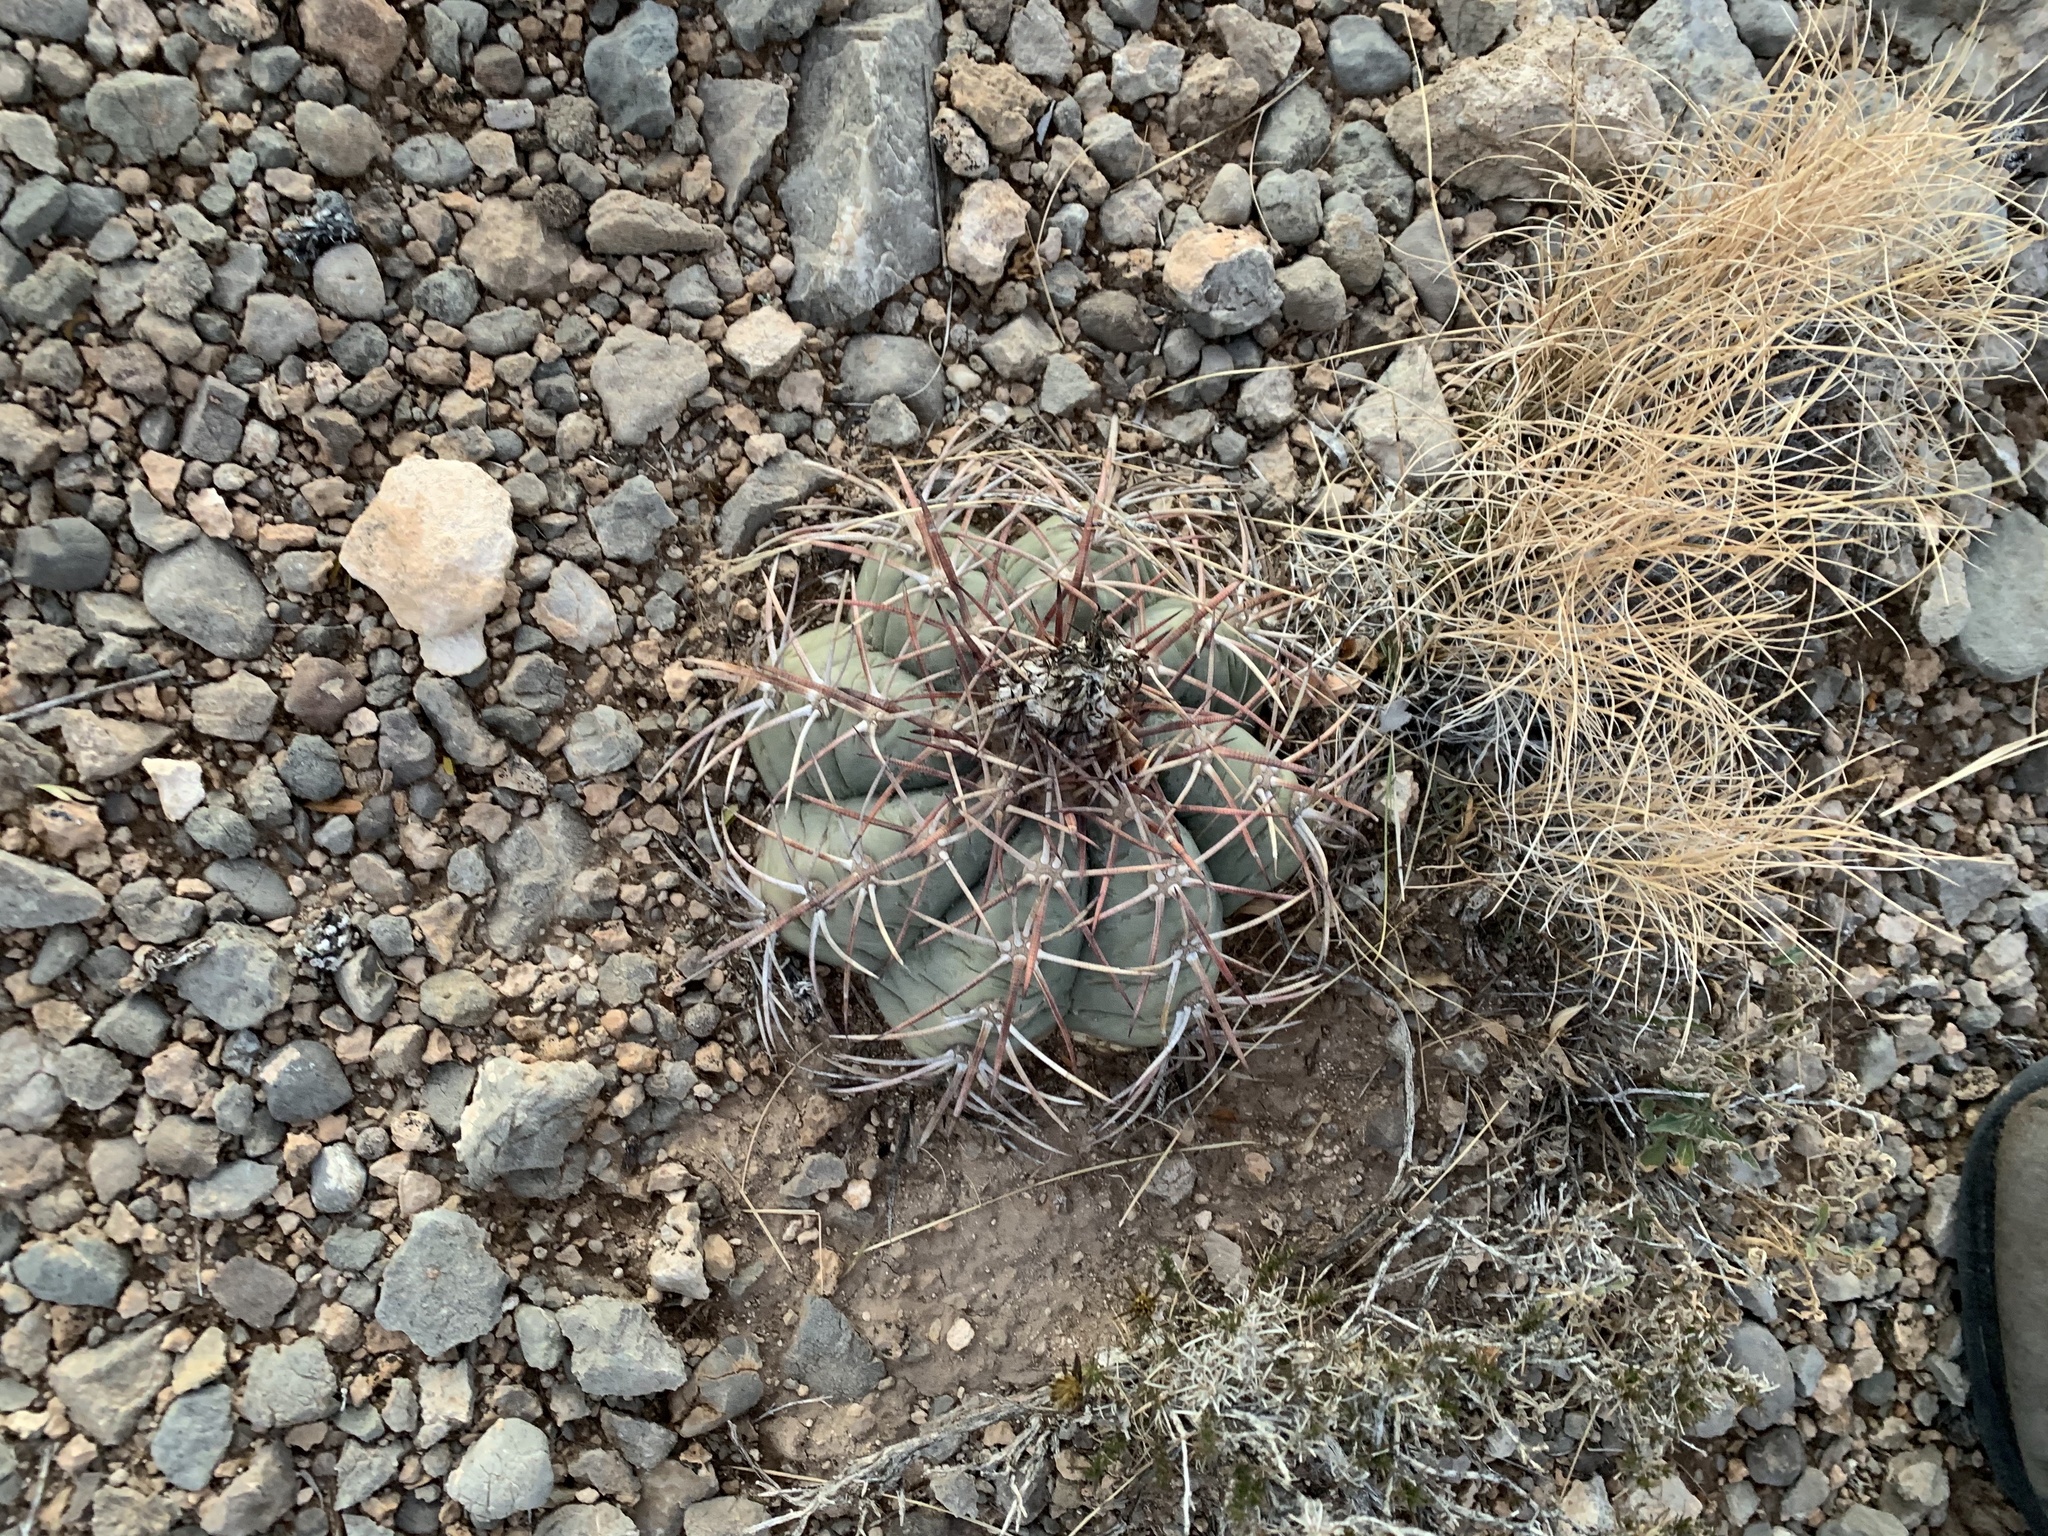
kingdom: Plantae
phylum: Tracheophyta
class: Magnoliopsida
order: Caryophyllales
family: Cactaceae
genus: Echinocactus
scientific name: Echinocactus horizonthalonius
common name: Devilshead
